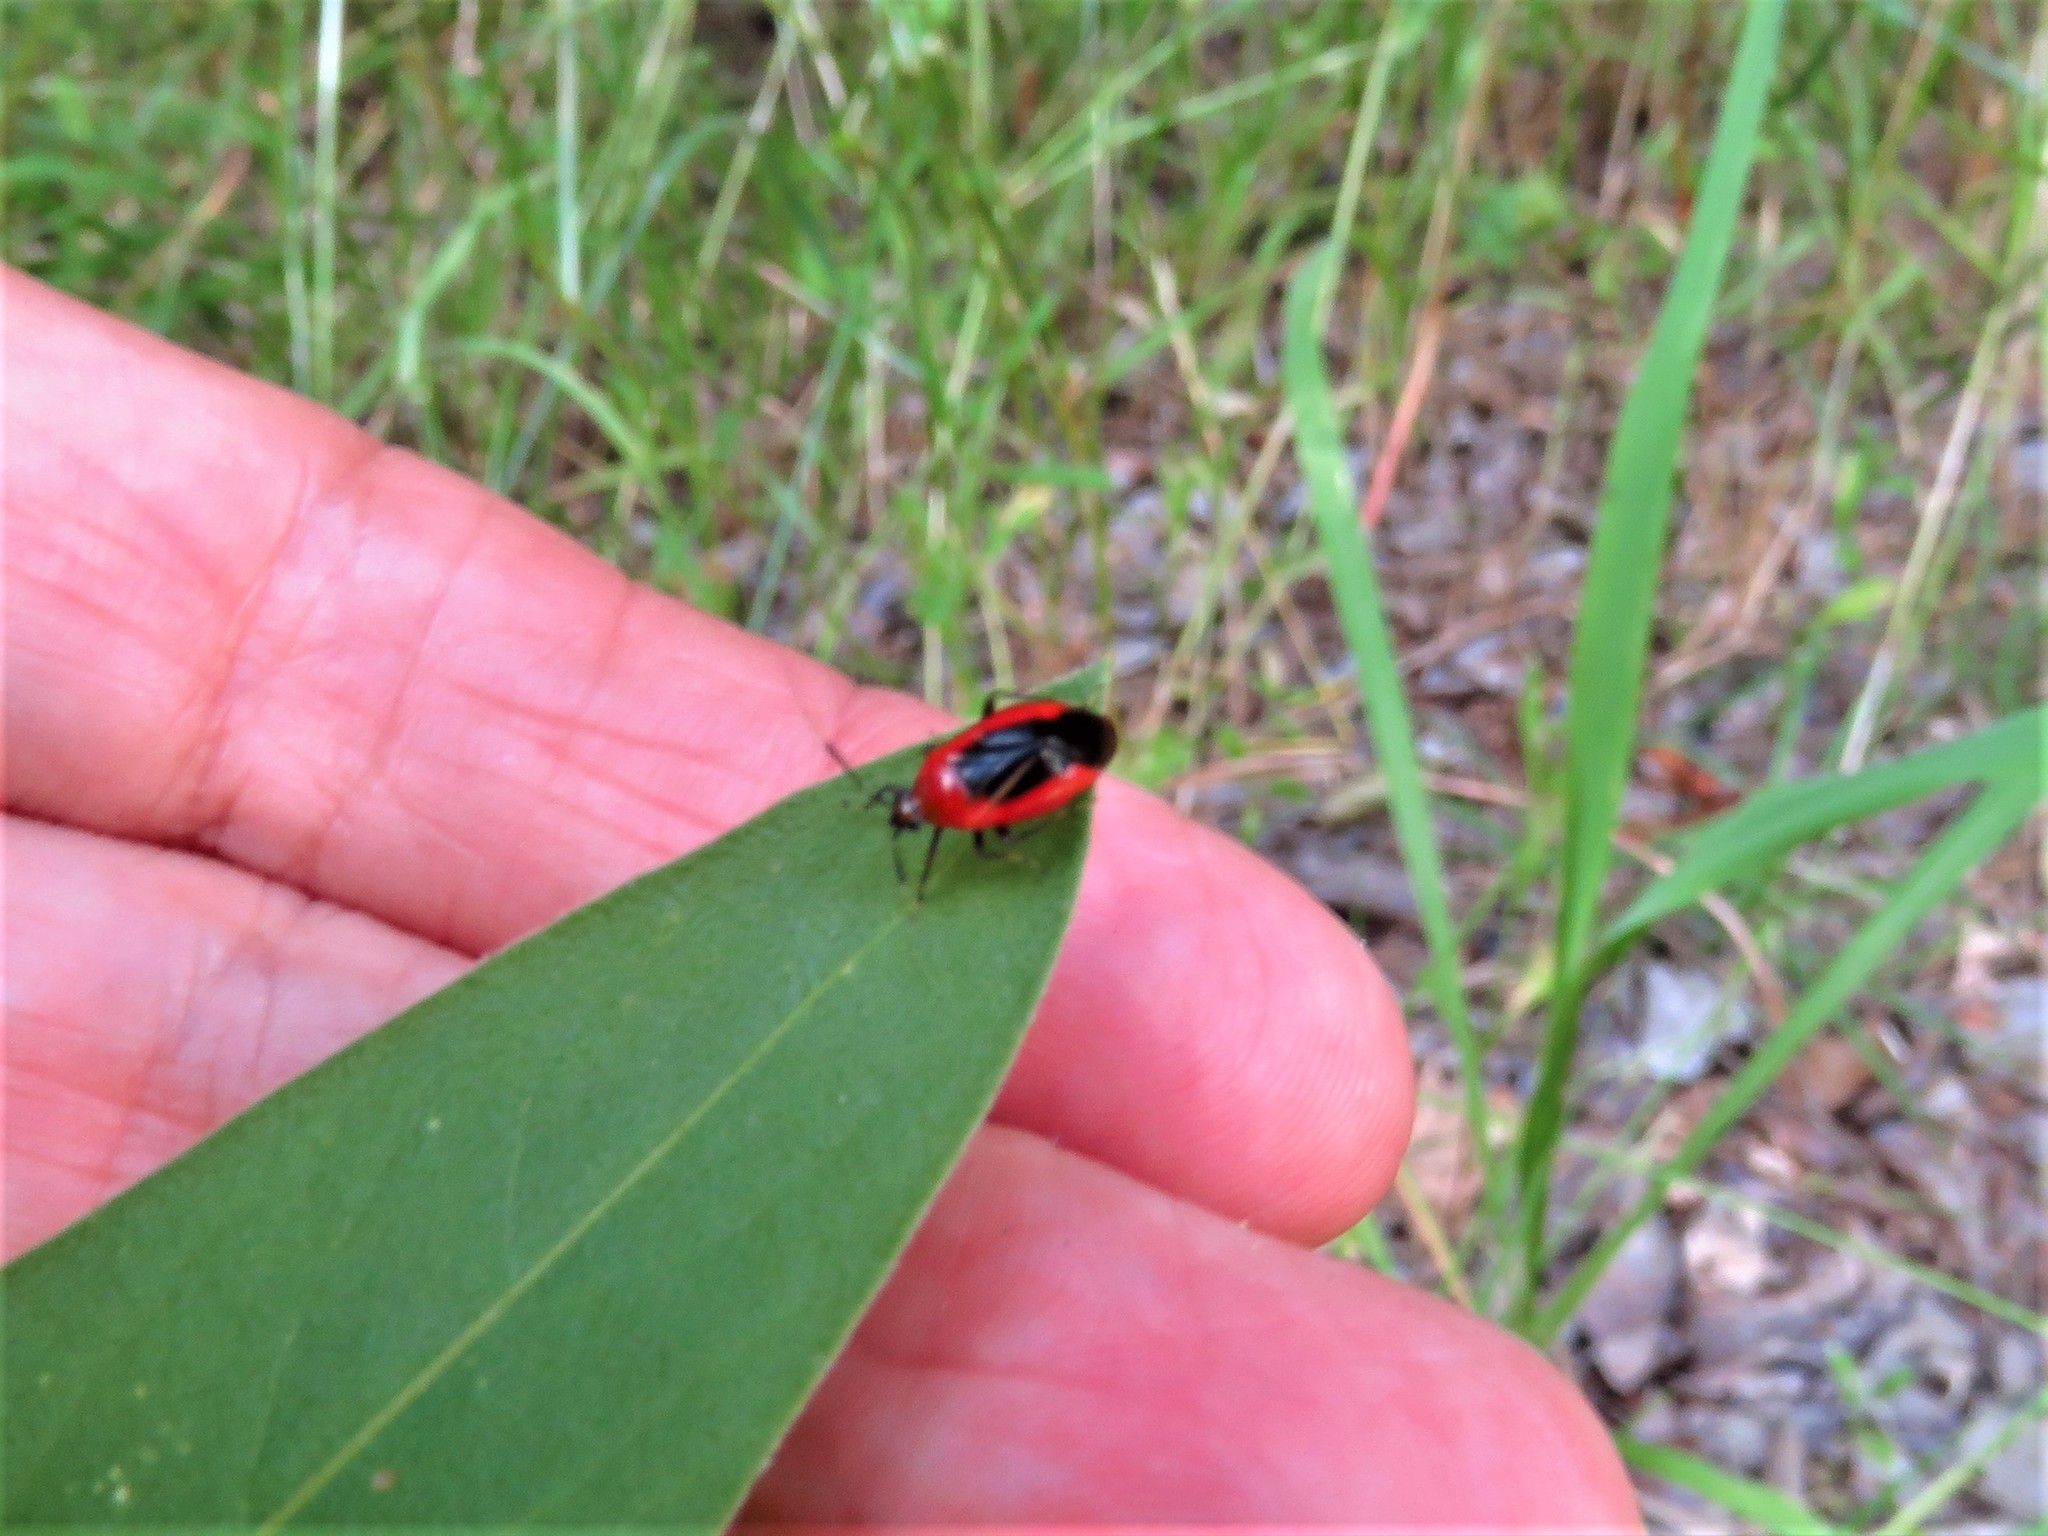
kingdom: Animalia
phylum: Arthropoda
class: Insecta
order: Hemiptera
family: Miridae
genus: Metriorrhynchomiris
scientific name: Metriorrhynchomiris dislocatus
